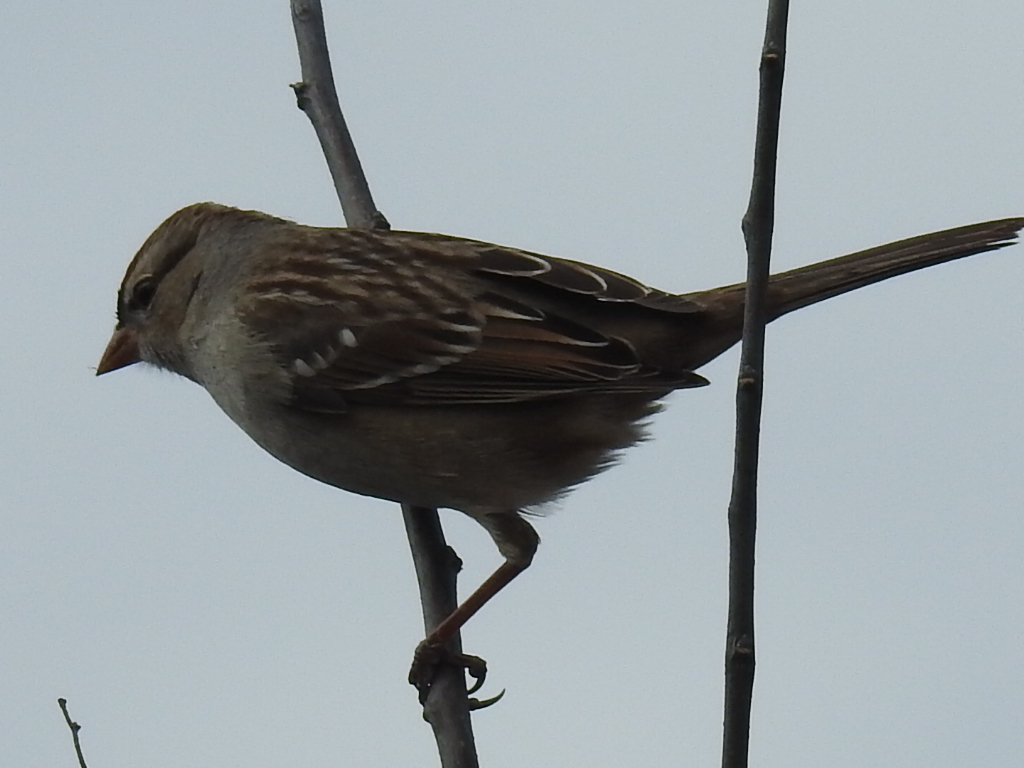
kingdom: Animalia
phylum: Chordata
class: Aves
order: Passeriformes
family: Passerellidae
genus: Zonotrichia
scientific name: Zonotrichia leucophrys
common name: White-crowned sparrow
